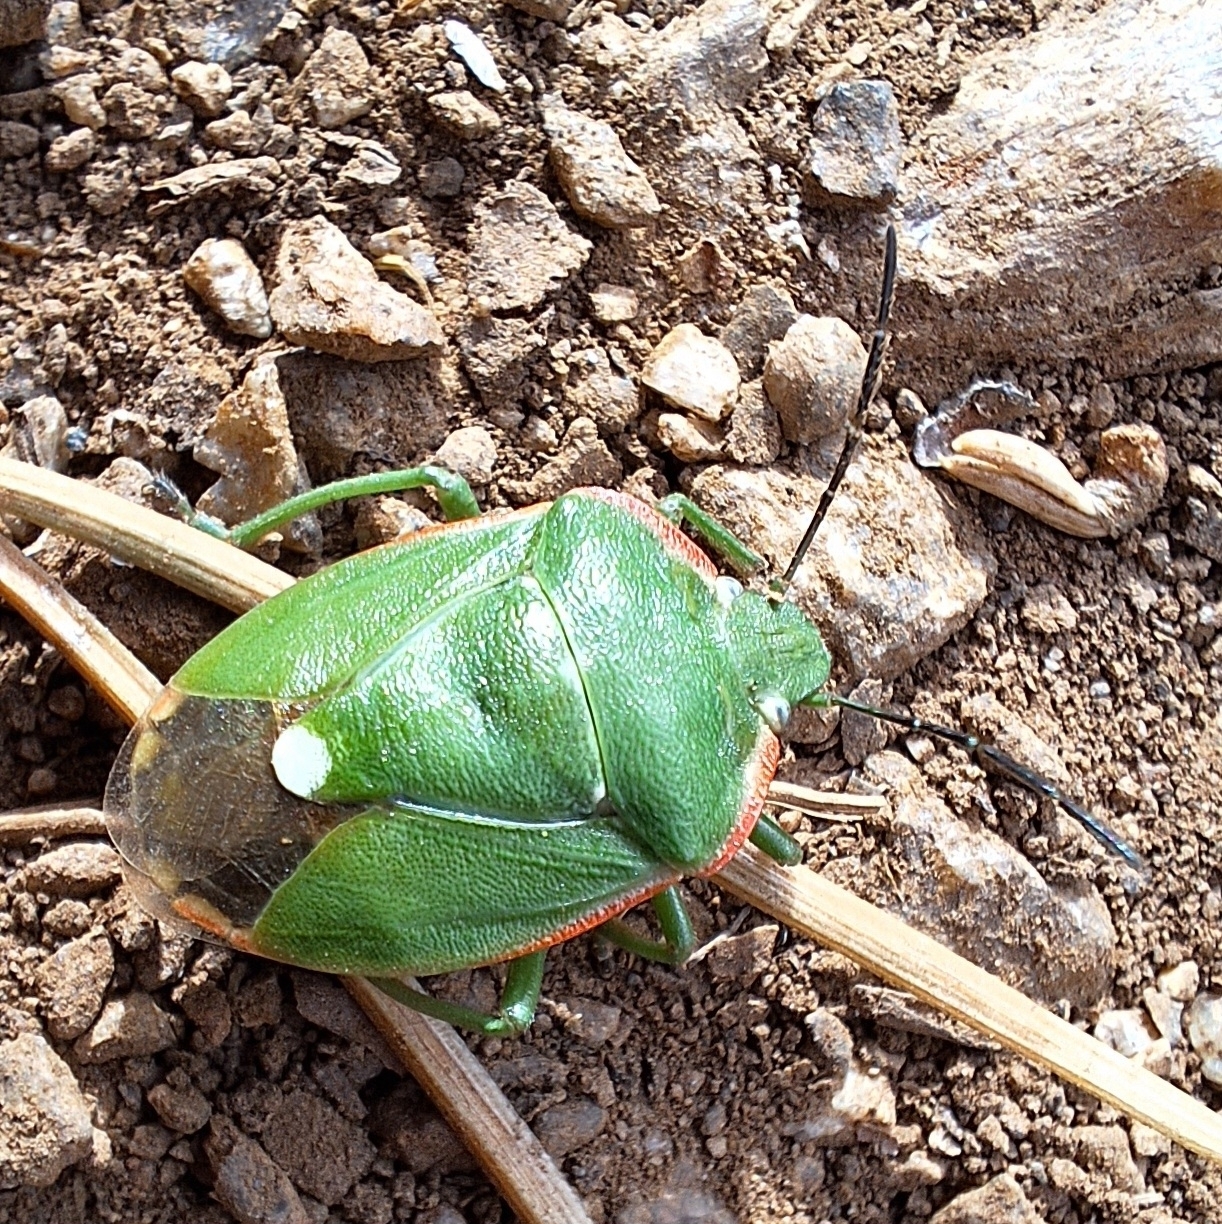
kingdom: Animalia
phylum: Arthropoda
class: Insecta
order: Hemiptera
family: Pentatomidae
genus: Chlorochroa
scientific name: Chlorochroa reuteriana
